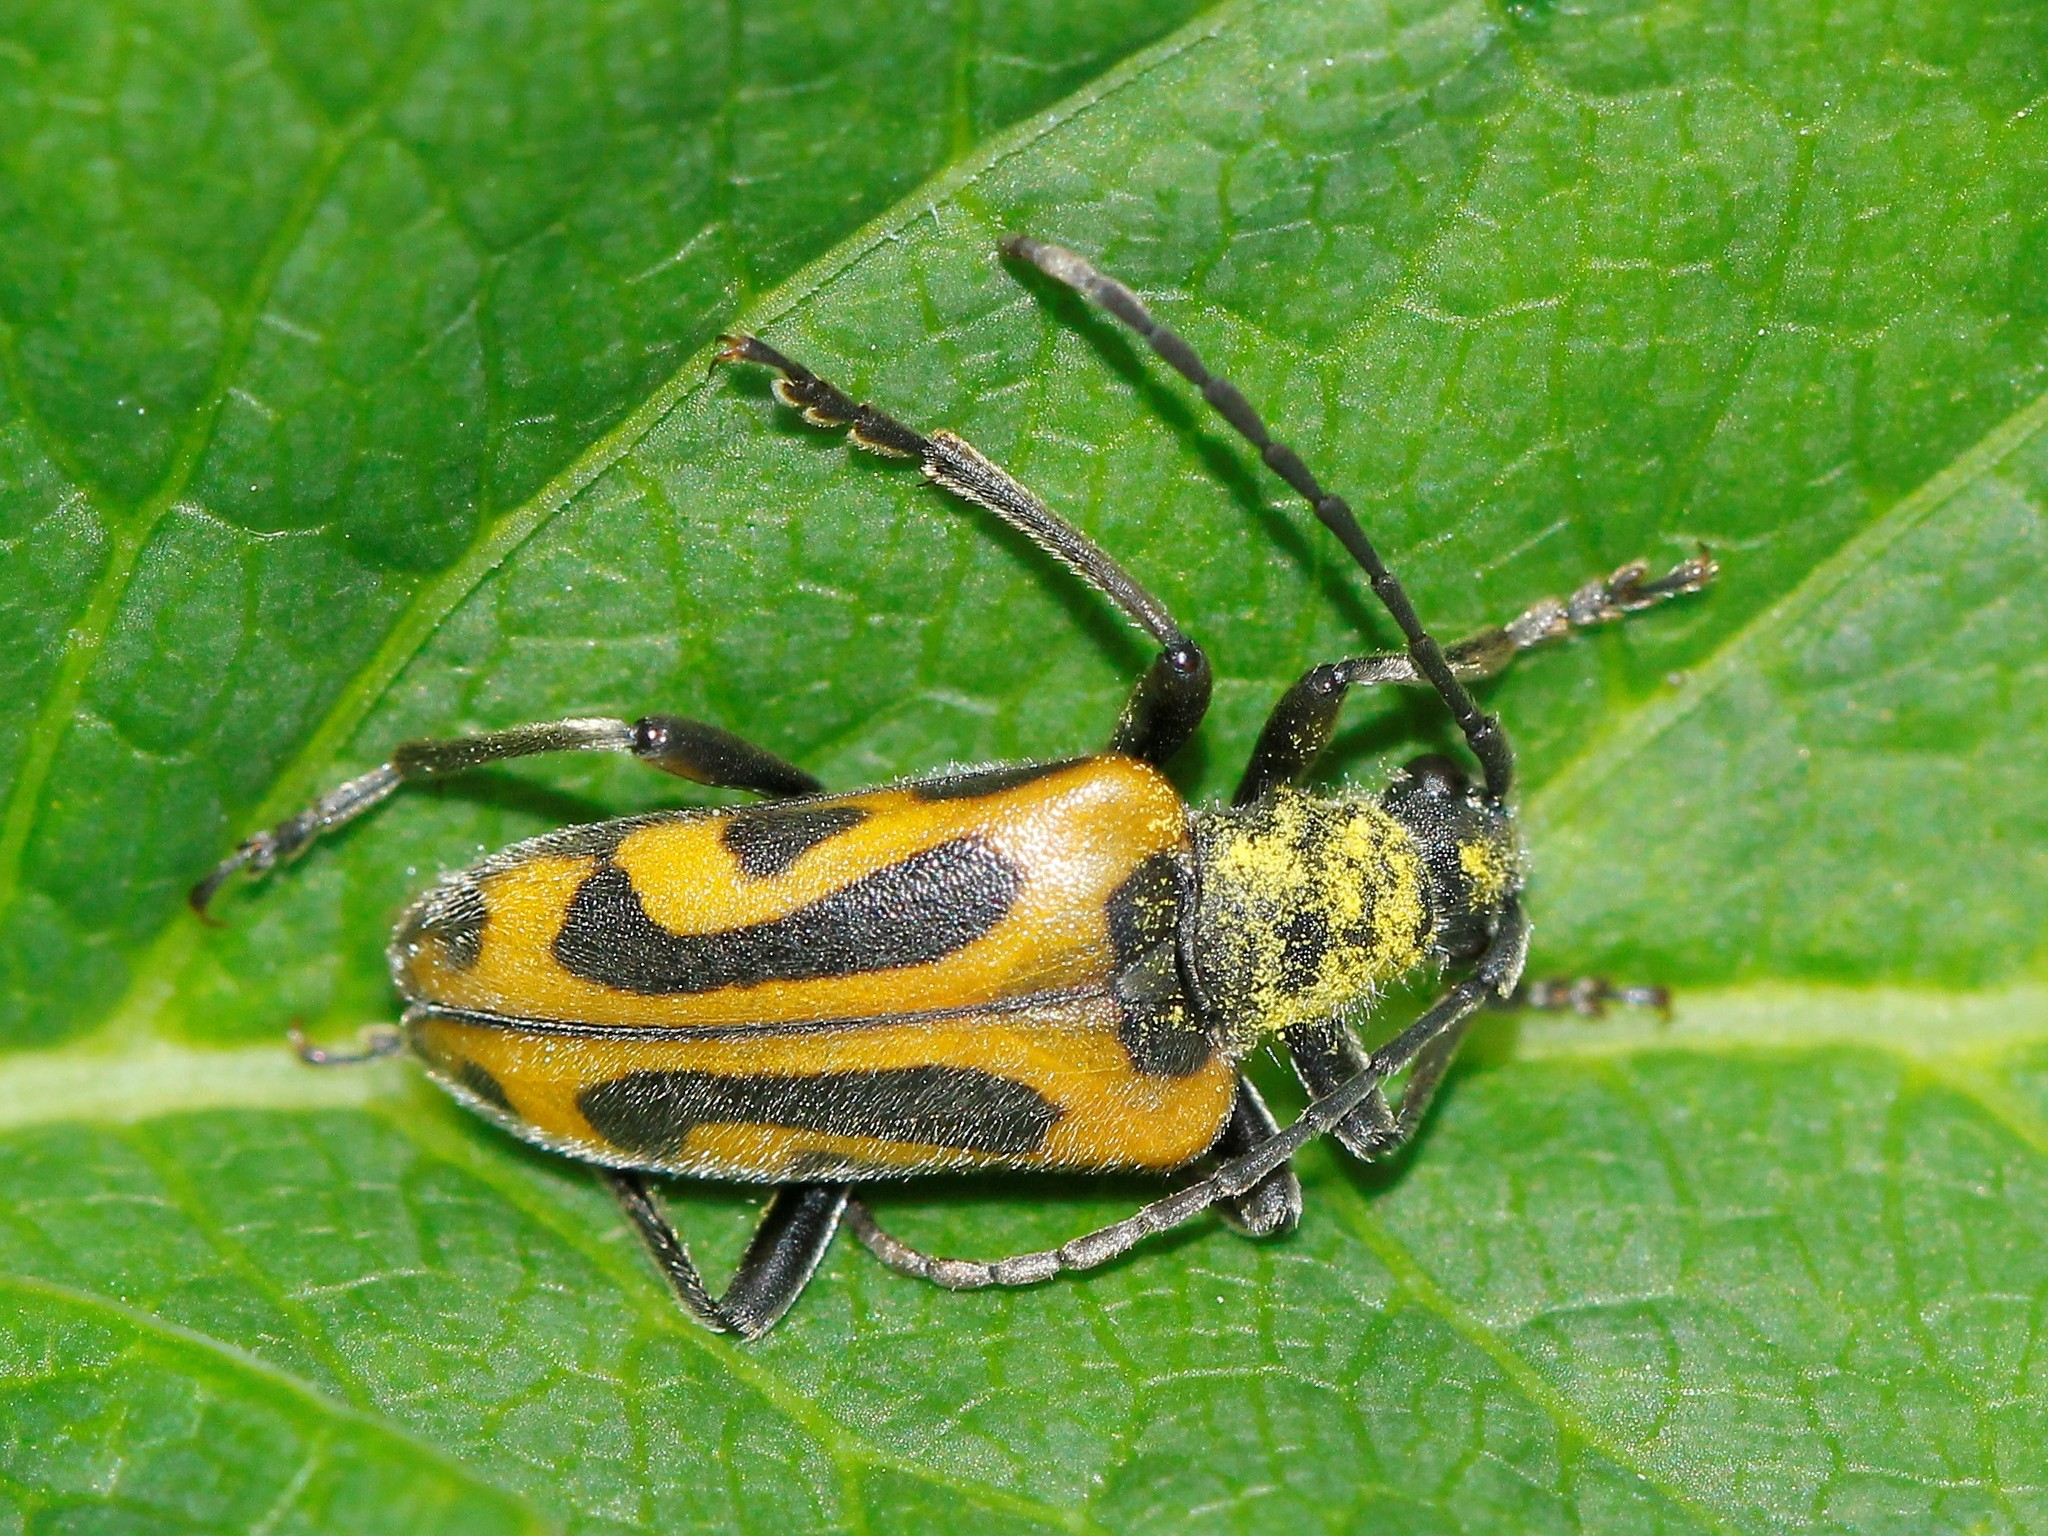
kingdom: Animalia
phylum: Arthropoda
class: Insecta
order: Coleoptera
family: Cerambycidae
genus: Brachyta
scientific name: Brachyta interrogationis
